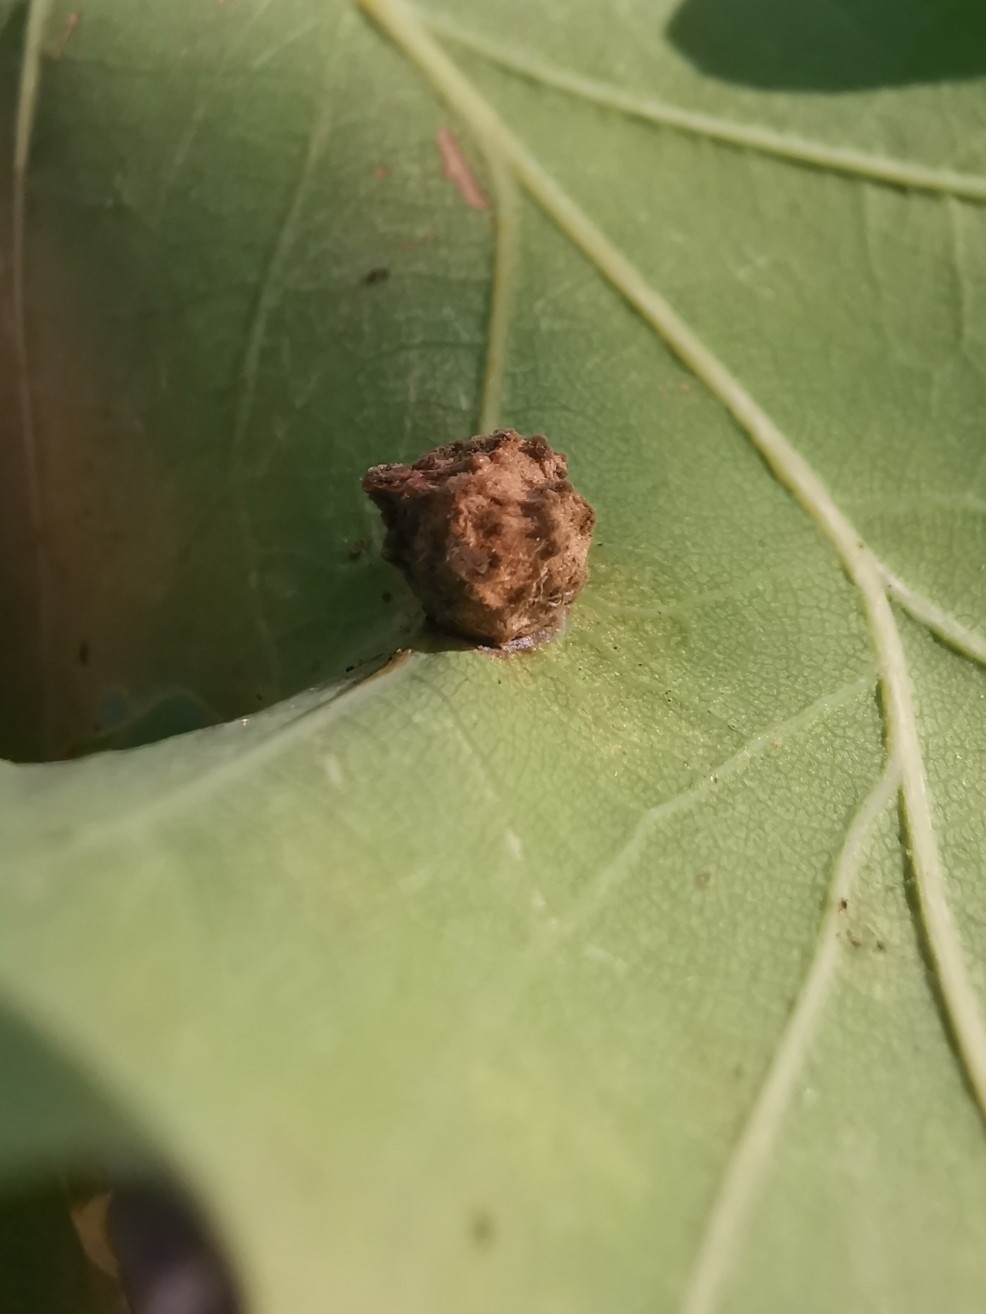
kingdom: Animalia
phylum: Arthropoda
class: Insecta
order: Hymenoptera
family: Cynipidae
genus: Neuroterus
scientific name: Neuroterus quercusbaccarum
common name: Common spangle gall
